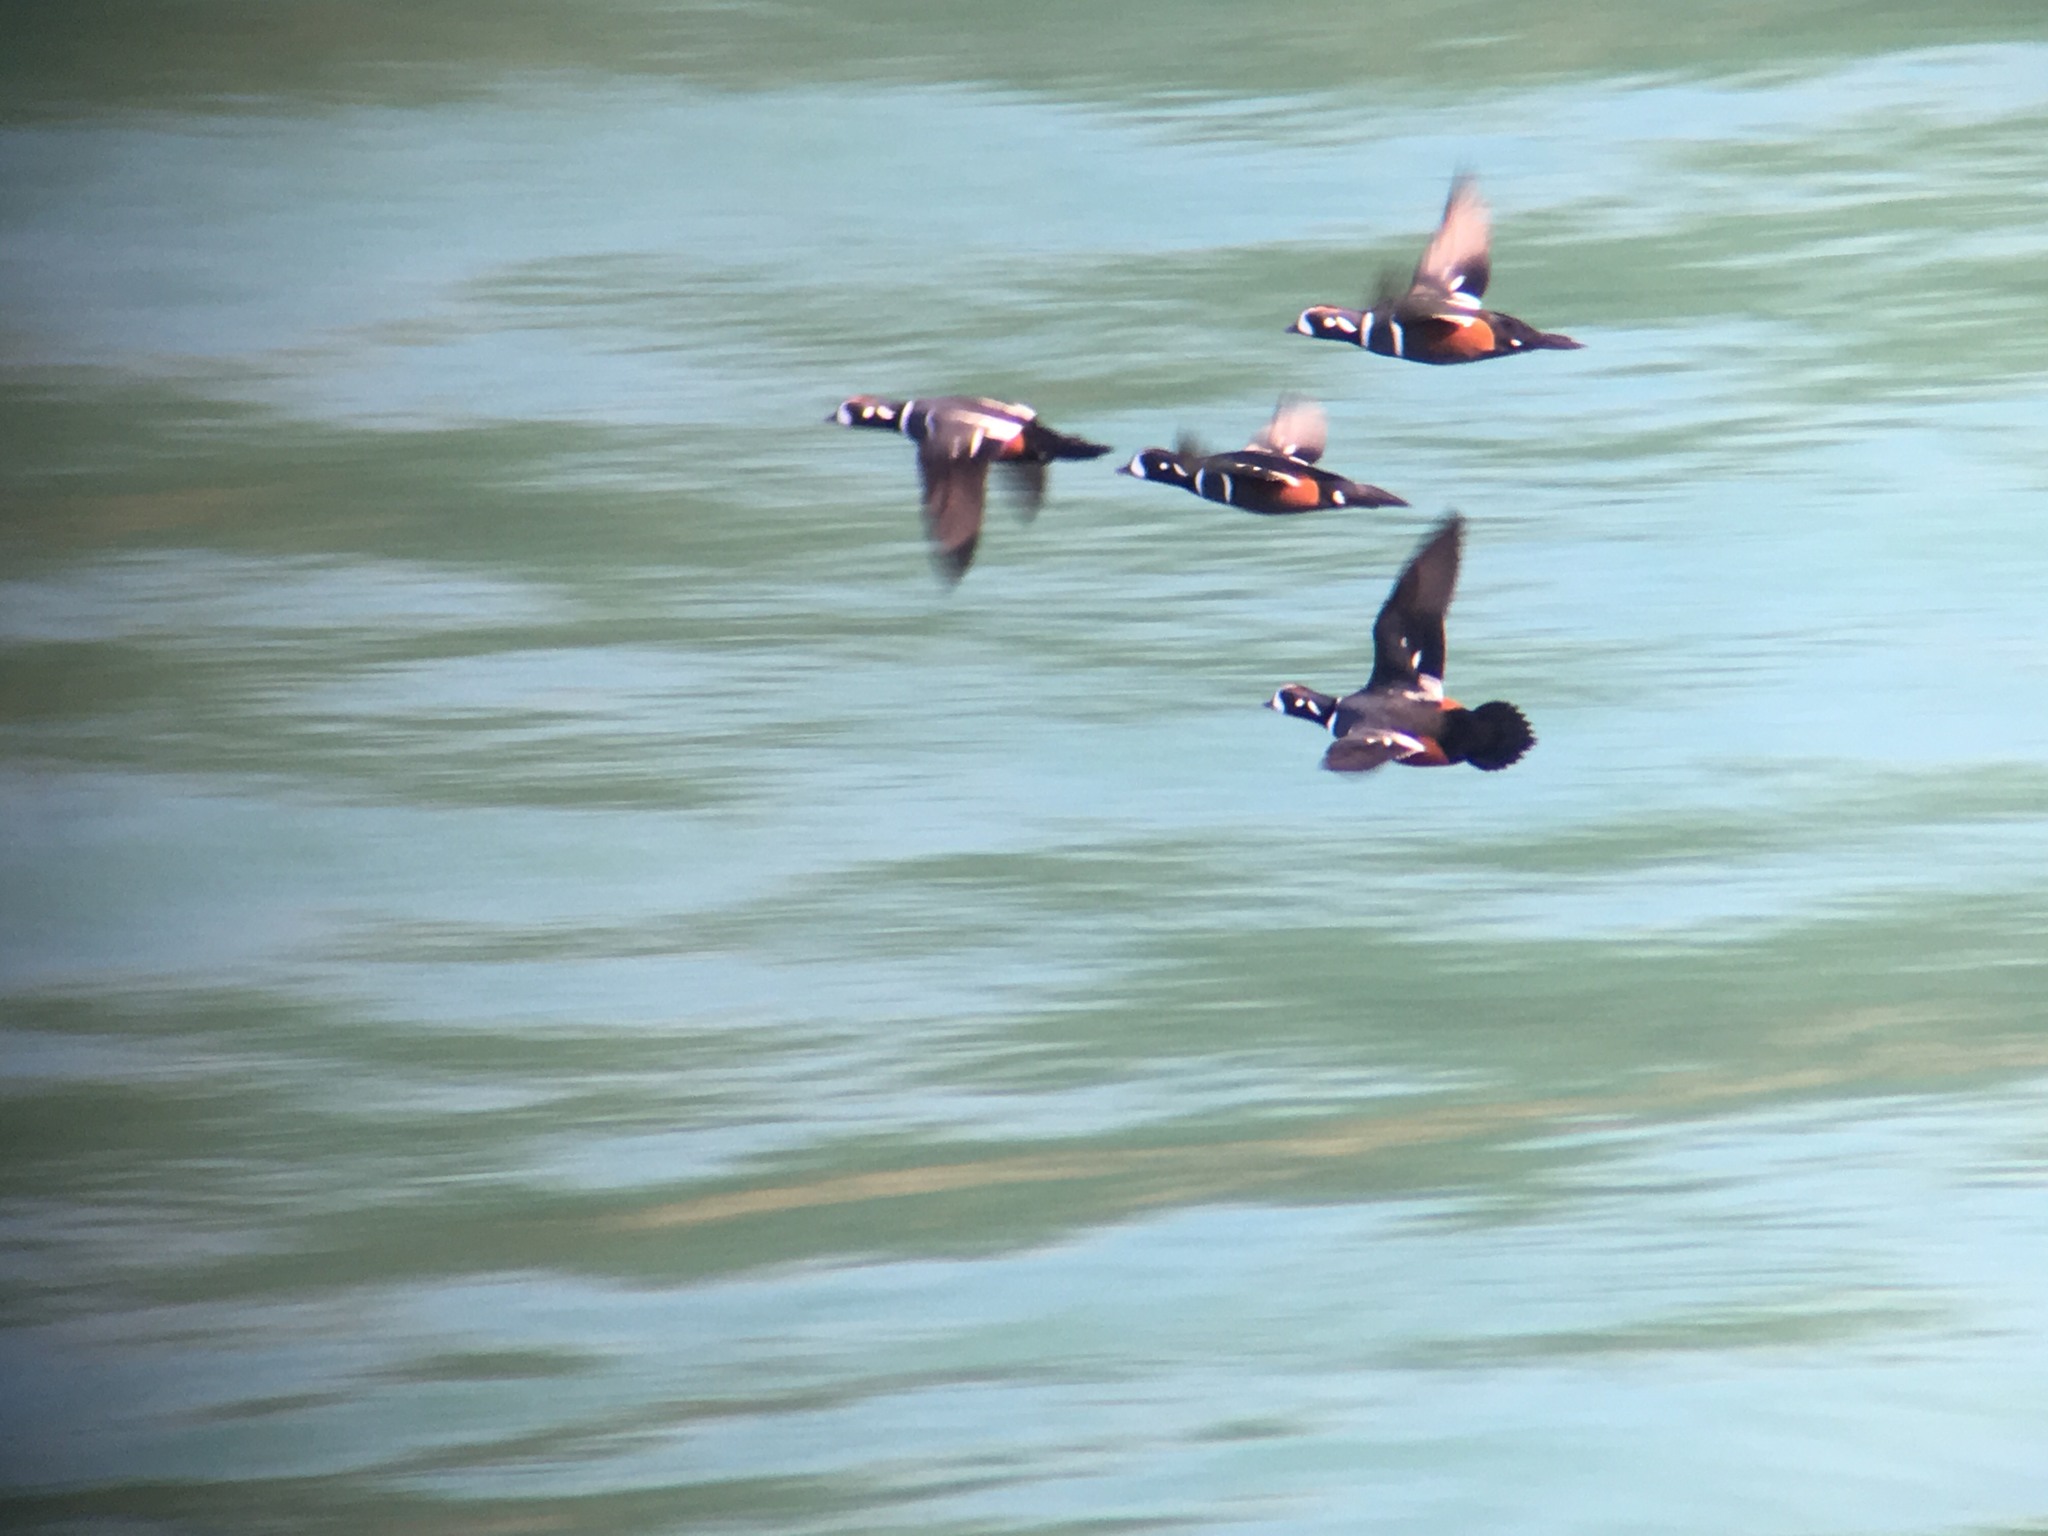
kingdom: Animalia
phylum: Chordata
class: Aves
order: Anseriformes
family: Anatidae
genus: Histrionicus
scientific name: Histrionicus histrionicus
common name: Harlequin duck
